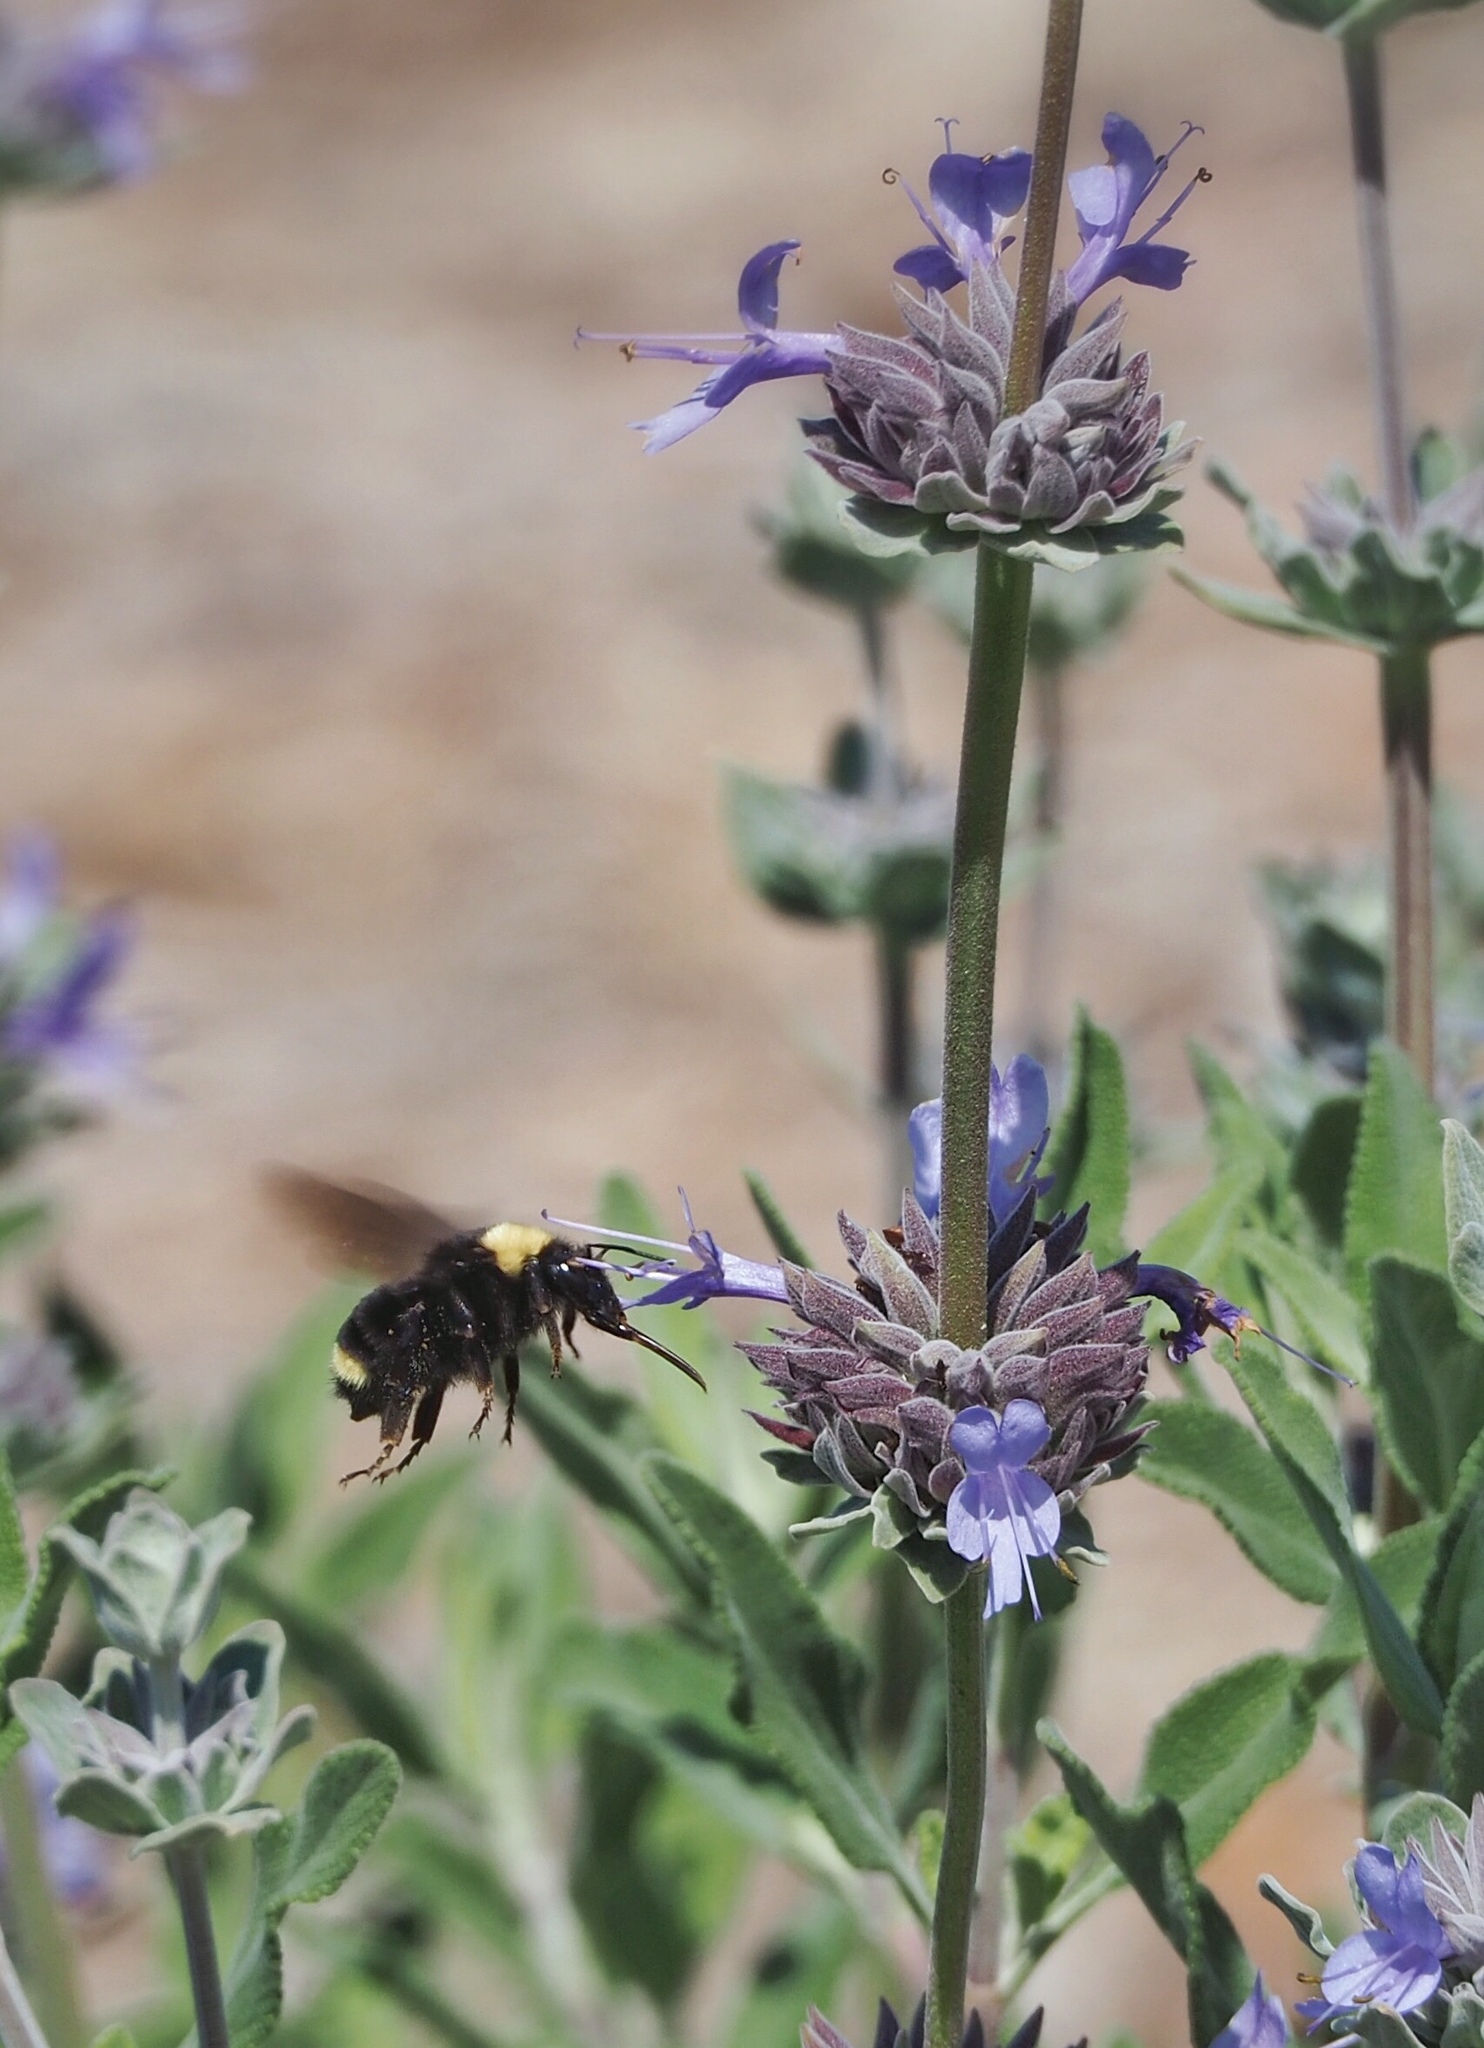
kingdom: Animalia
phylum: Arthropoda
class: Insecta
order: Hymenoptera
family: Apidae
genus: Bombus
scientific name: Bombus californicus
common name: California bumble bee
